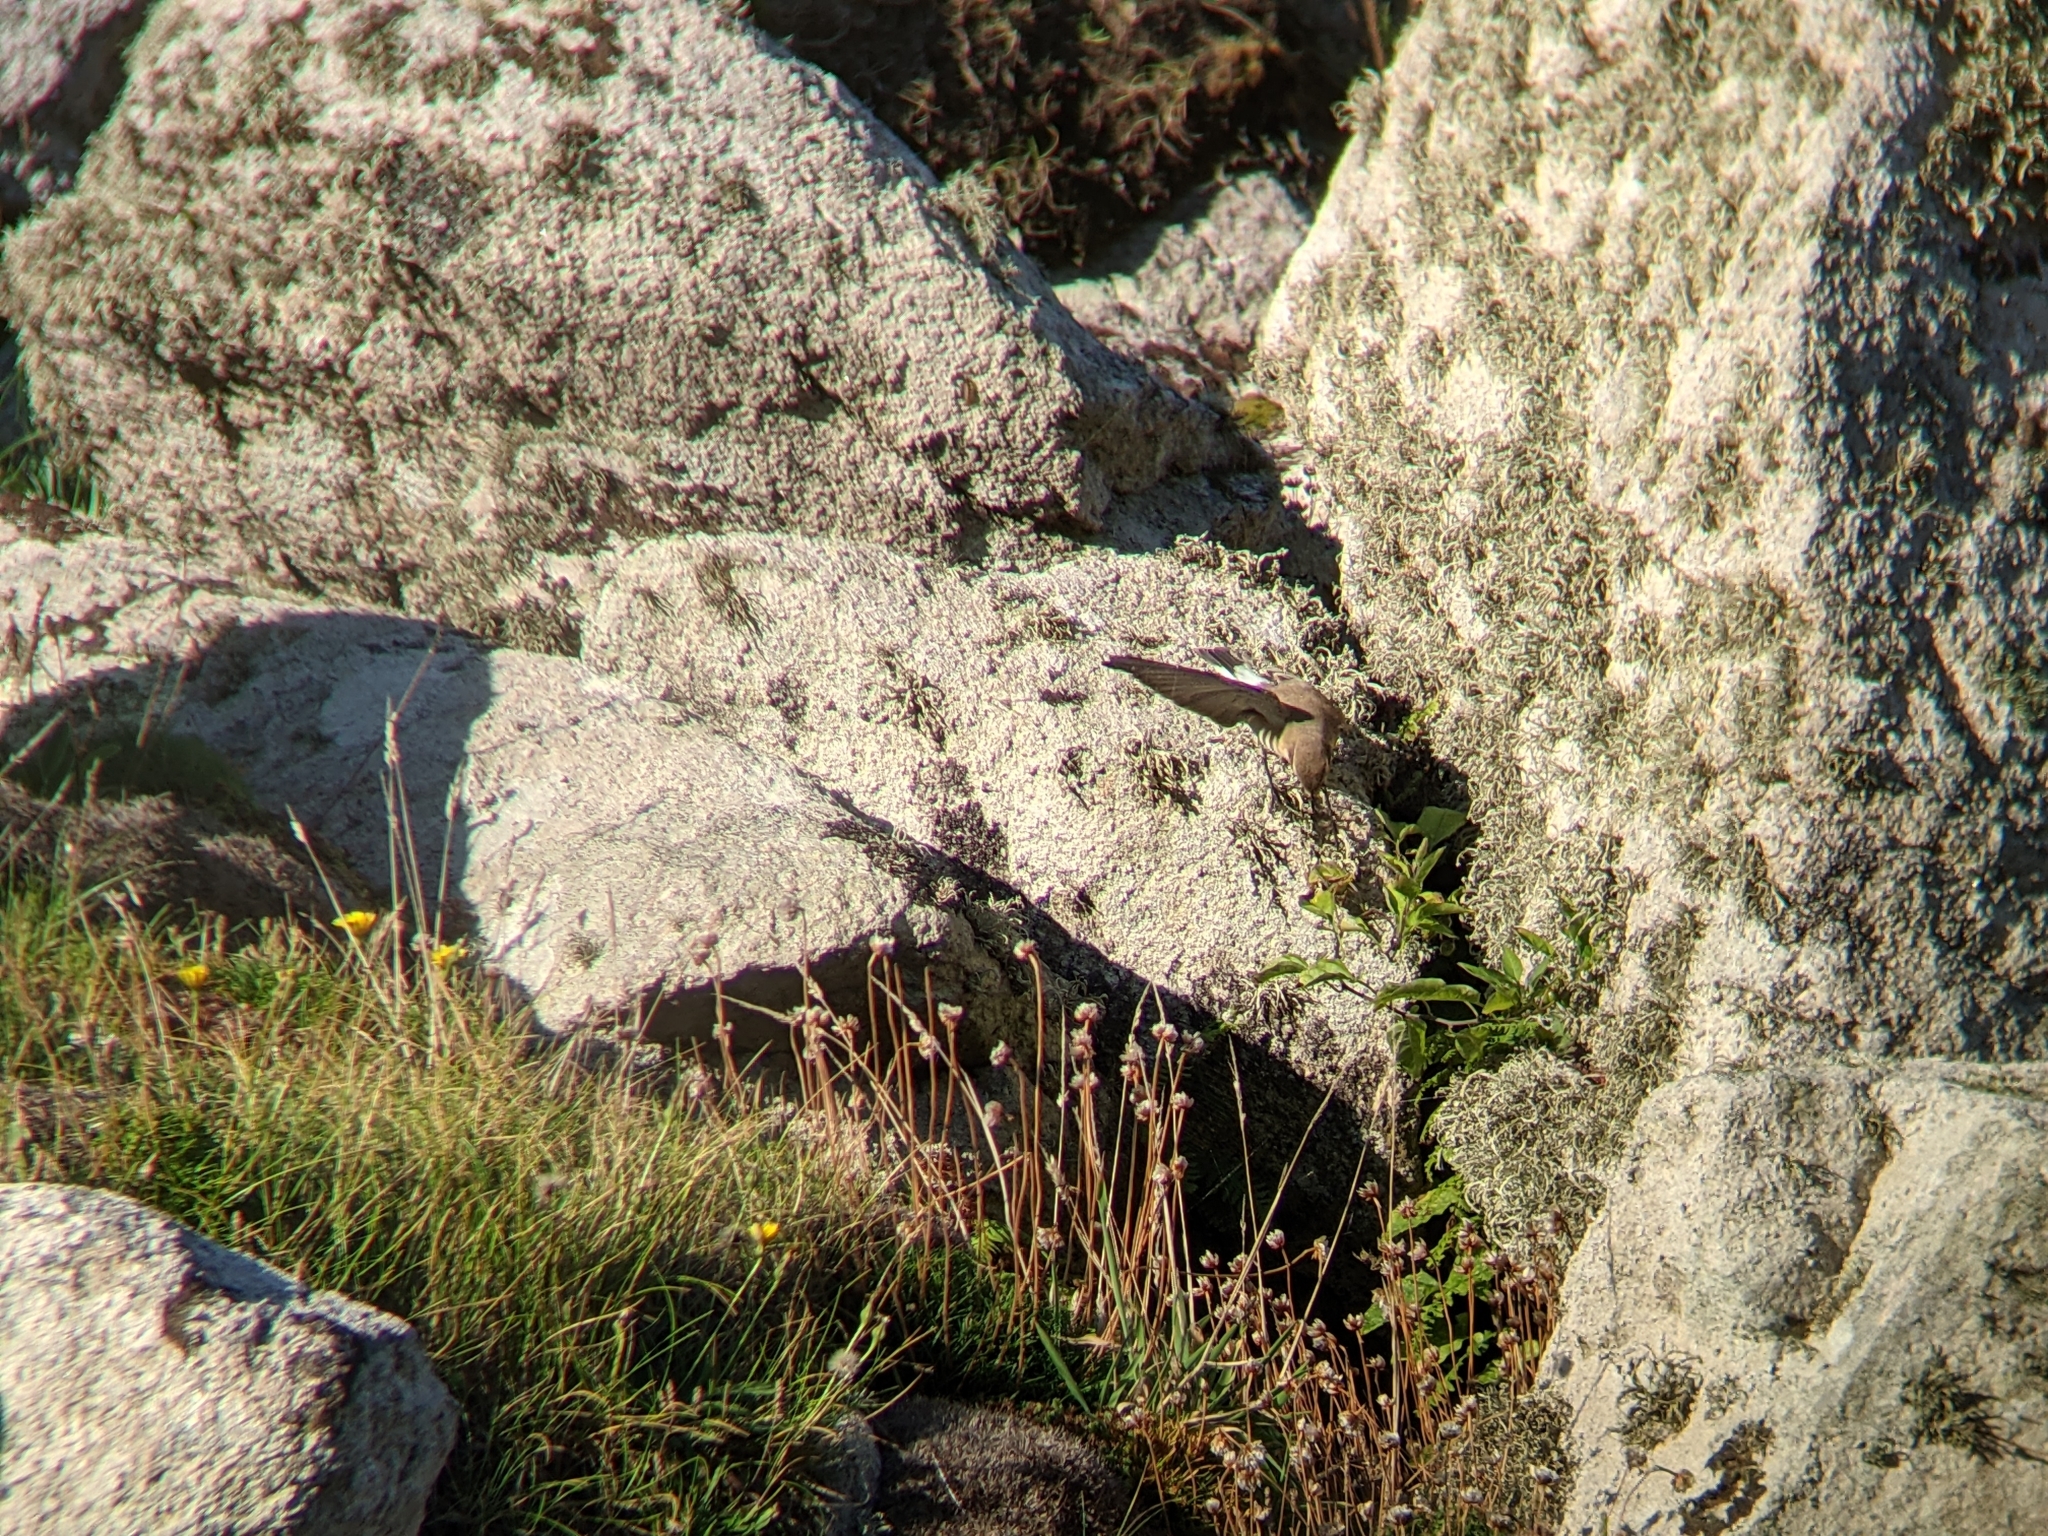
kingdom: Animalia
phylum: Chordata
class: Aves
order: Passeriformes
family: Muscicapidae
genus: Oenanthe
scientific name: Oenanthe oenanthe
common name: Northern wheatear
